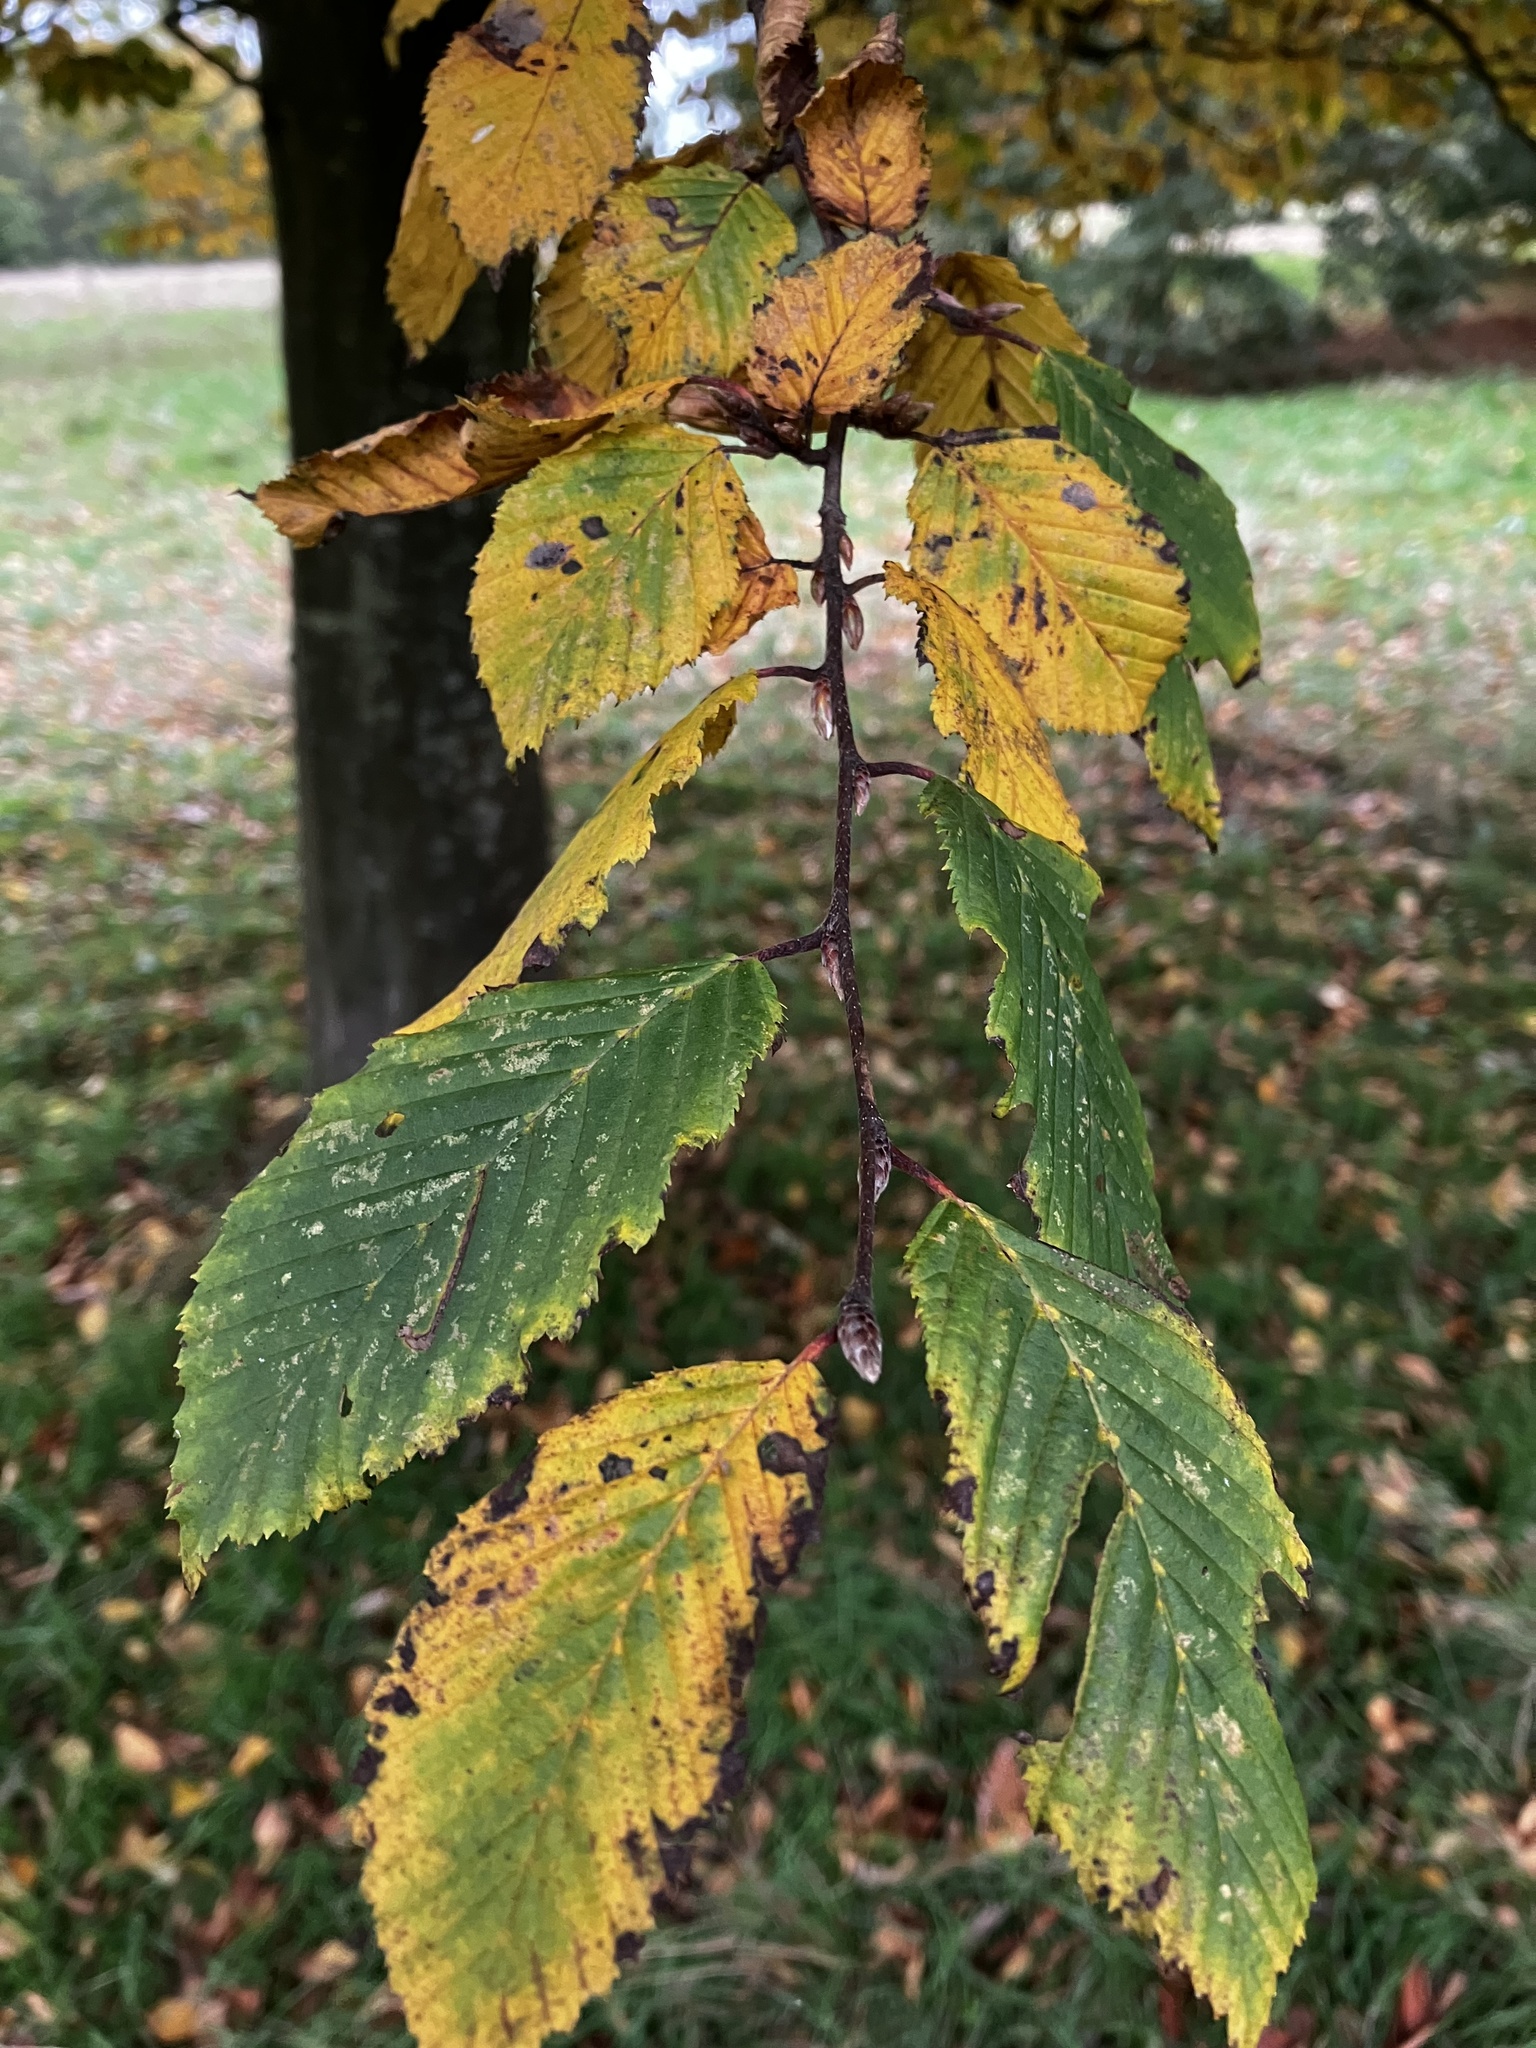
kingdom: Plantae
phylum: Tracheophyta
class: Magnoliopsida
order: Fagales
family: Betulaceae
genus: Carpinus
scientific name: Carpinus betulus
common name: Hornbeam
